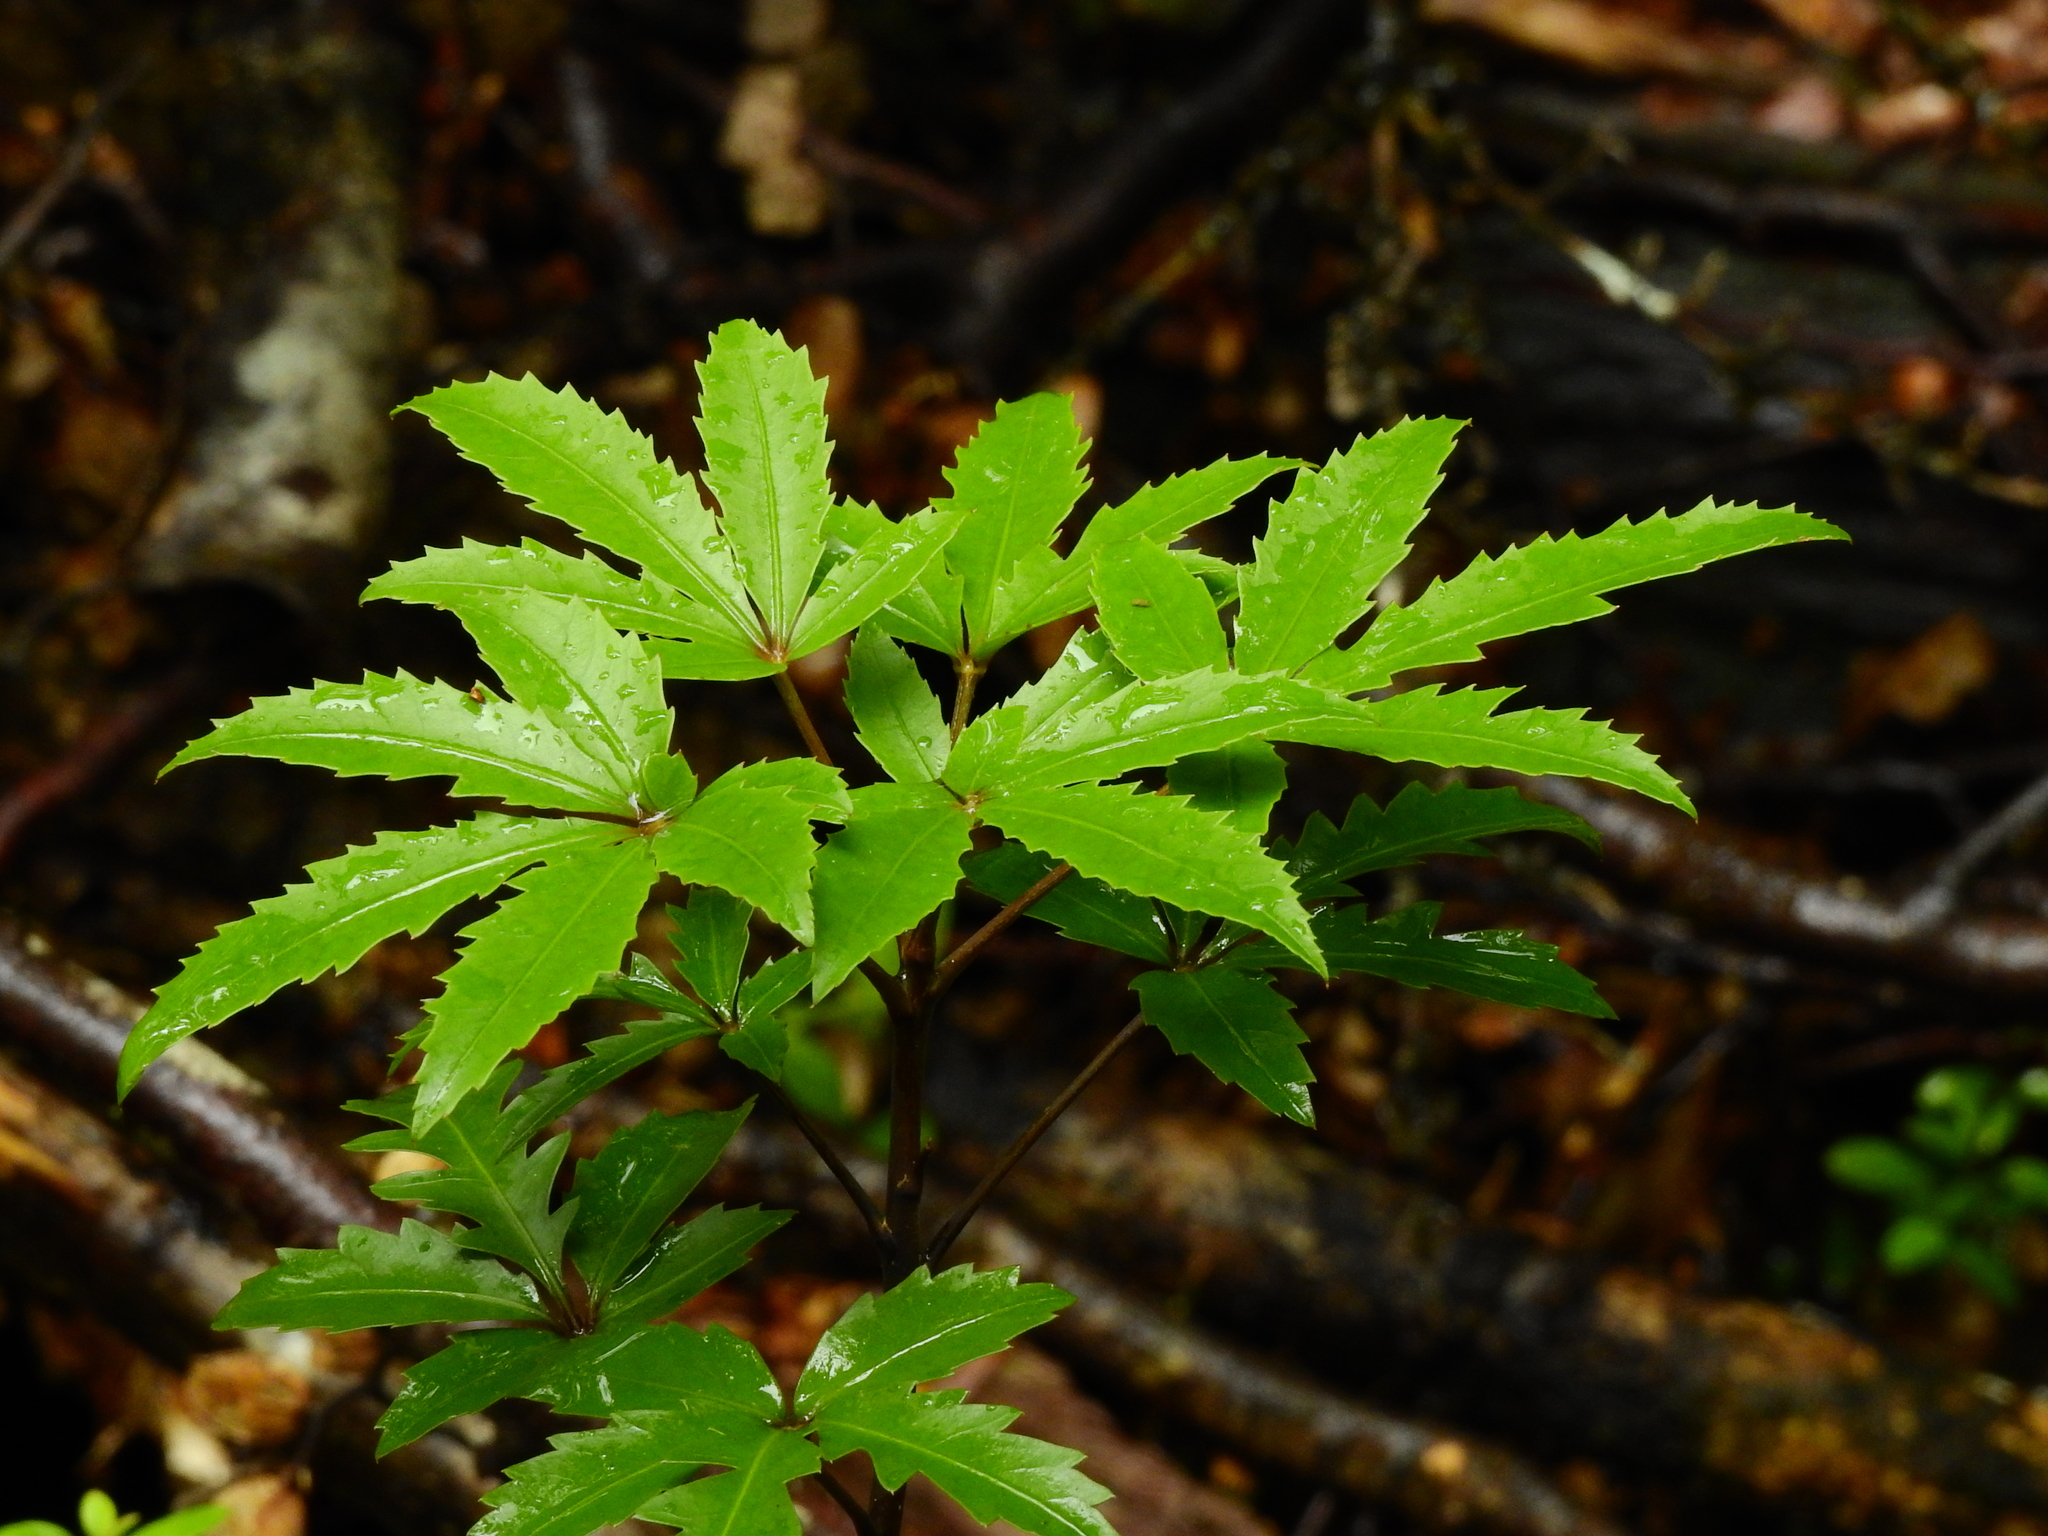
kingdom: Plantae
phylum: Tracheophyta
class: Magnoliopsida
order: Apiales
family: Araliaceae
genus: Neopanax
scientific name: Neopanax colensoi
